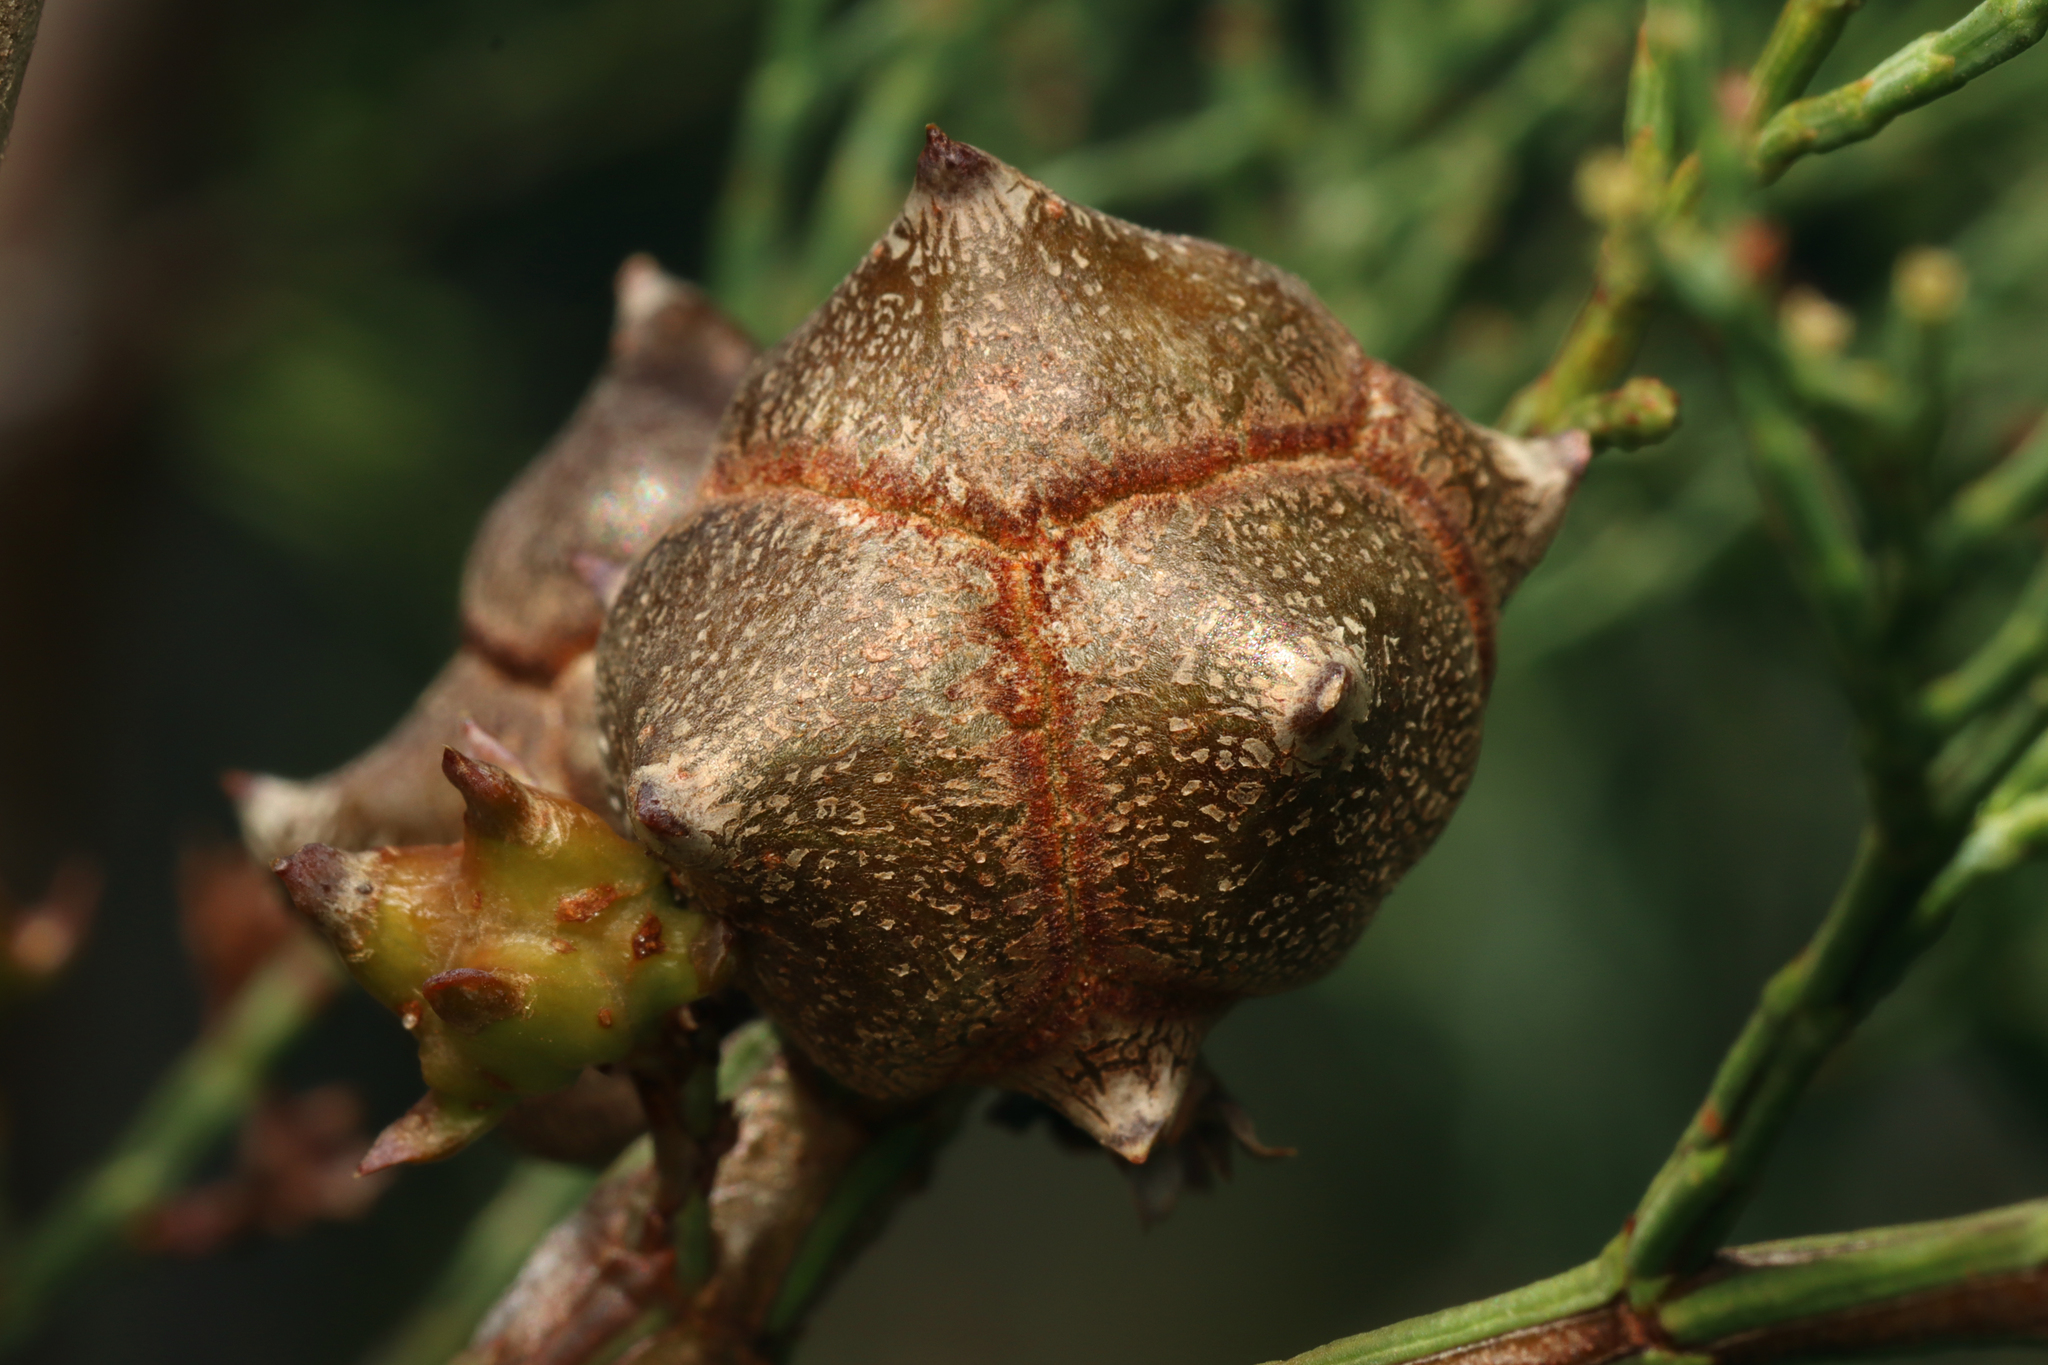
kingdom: Plantae
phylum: Tracheophyta
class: Pinopsida
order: Pinales
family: Cupressaceae
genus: Callitris
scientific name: Callitris rhomboidea
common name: Illawara mountain pine
